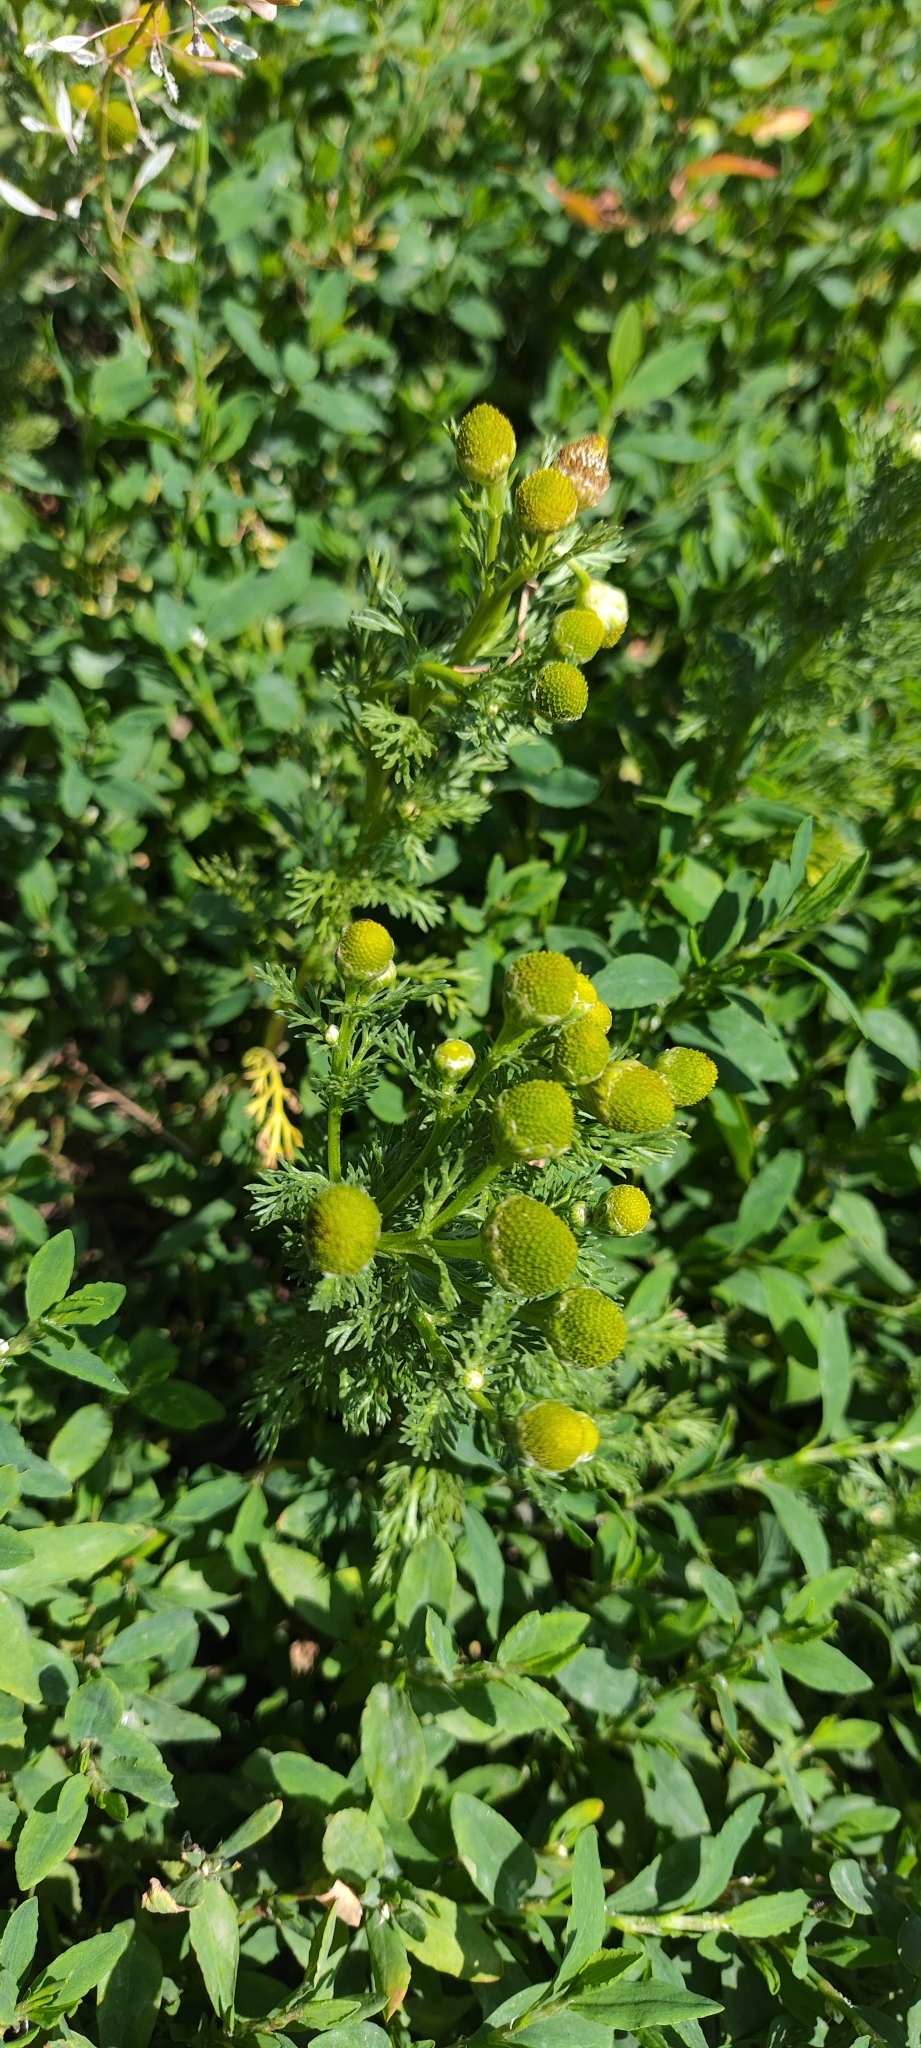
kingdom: Plantae
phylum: Tracheophyta
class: Magnoliopsida
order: Asterales
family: Asteraceae
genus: Matricaria
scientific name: Matricaria discoidea
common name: Disc mayweed
